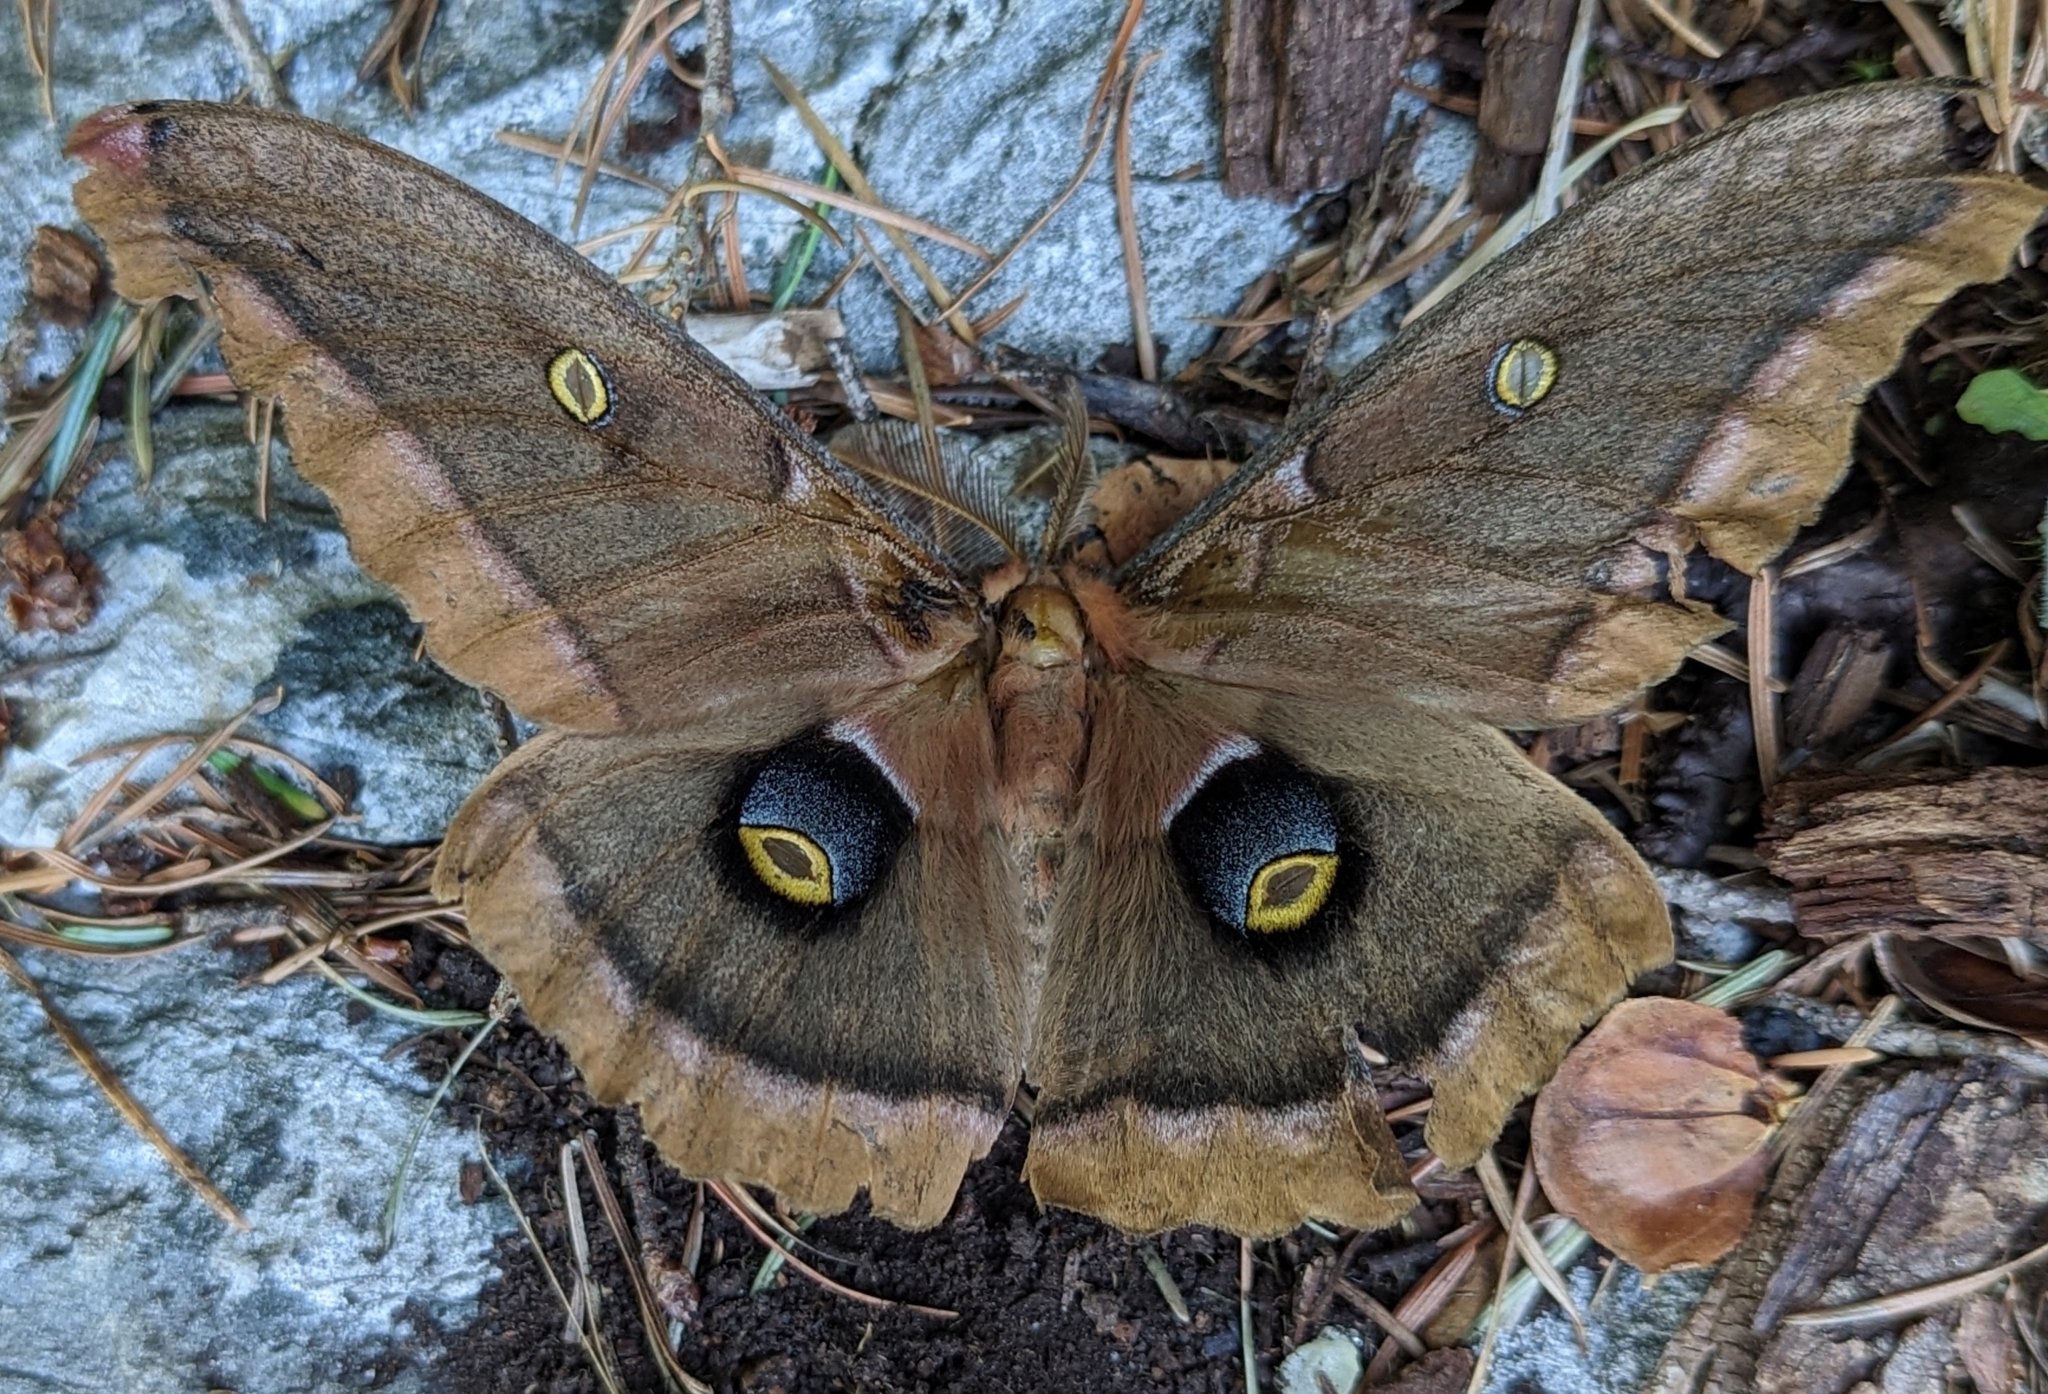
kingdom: Animalia
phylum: Arthropoda
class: Insecta
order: Lepidoptera
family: Saturniidae
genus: Antheraea
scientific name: Antheraea polyphemus
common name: Polyphemus moth
